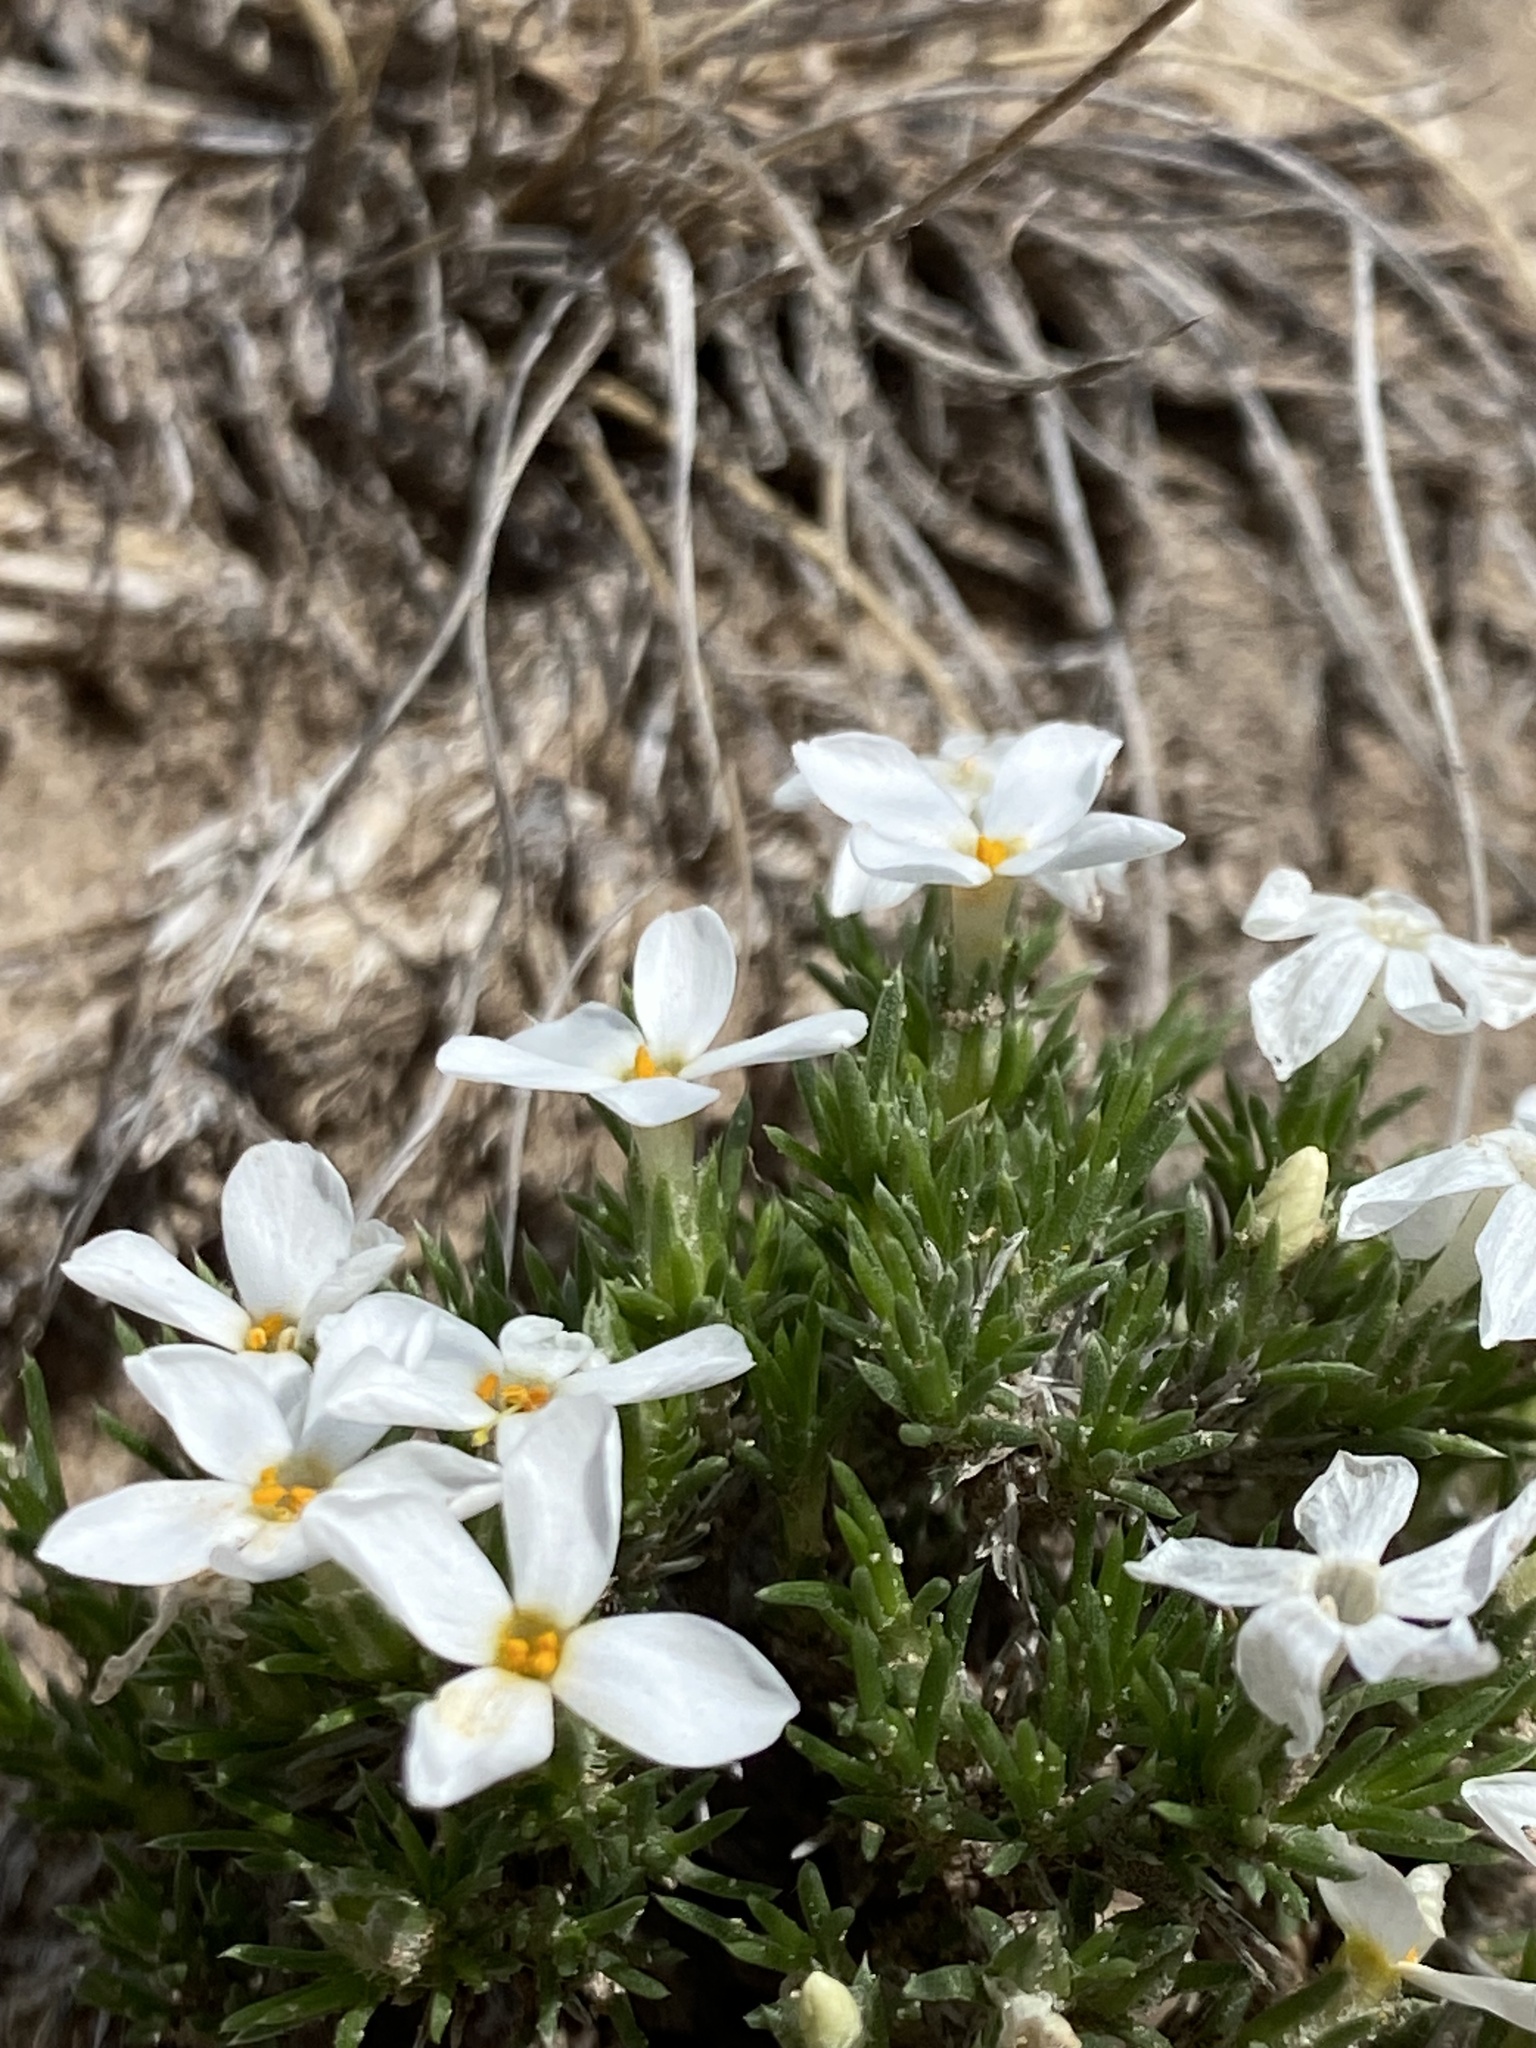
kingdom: Plantae
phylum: Tracheophyta
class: Magnoliopsida
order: Ericales
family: Polemoniaceae
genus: Phlox
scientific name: Phlox hoodii
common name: Moss phlox
